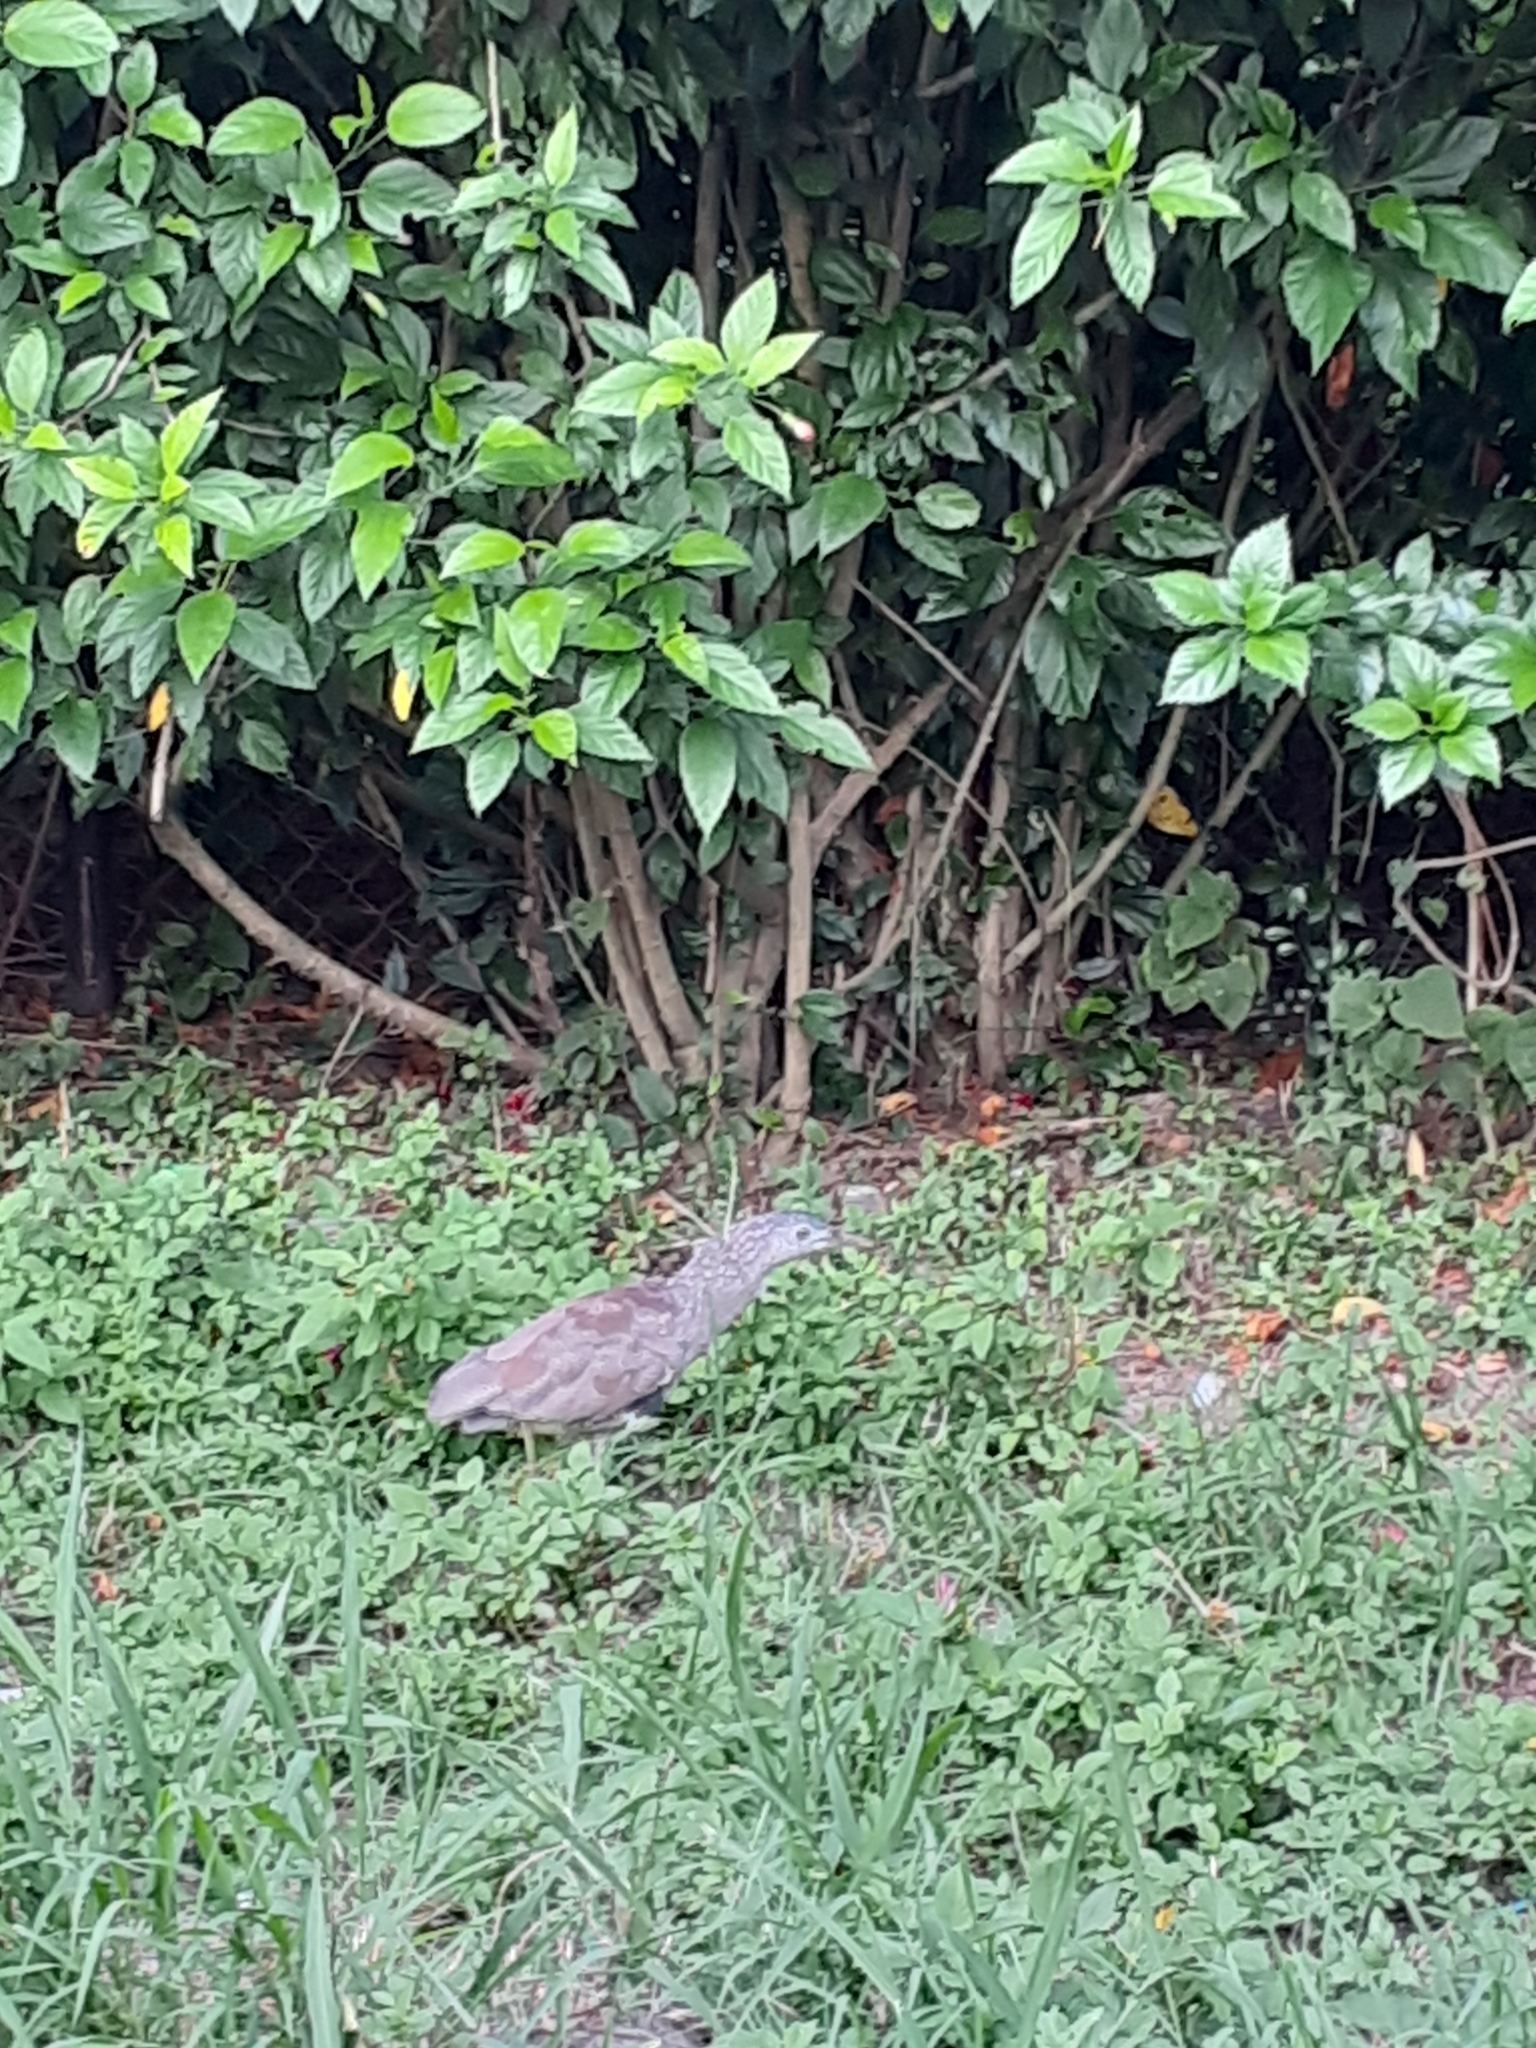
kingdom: Animalia
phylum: Chordata
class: Aves
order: Pelecaniformes
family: Ardeidae
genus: Gorsachius
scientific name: Gorsachius melanolophus
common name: Malayan night heron
